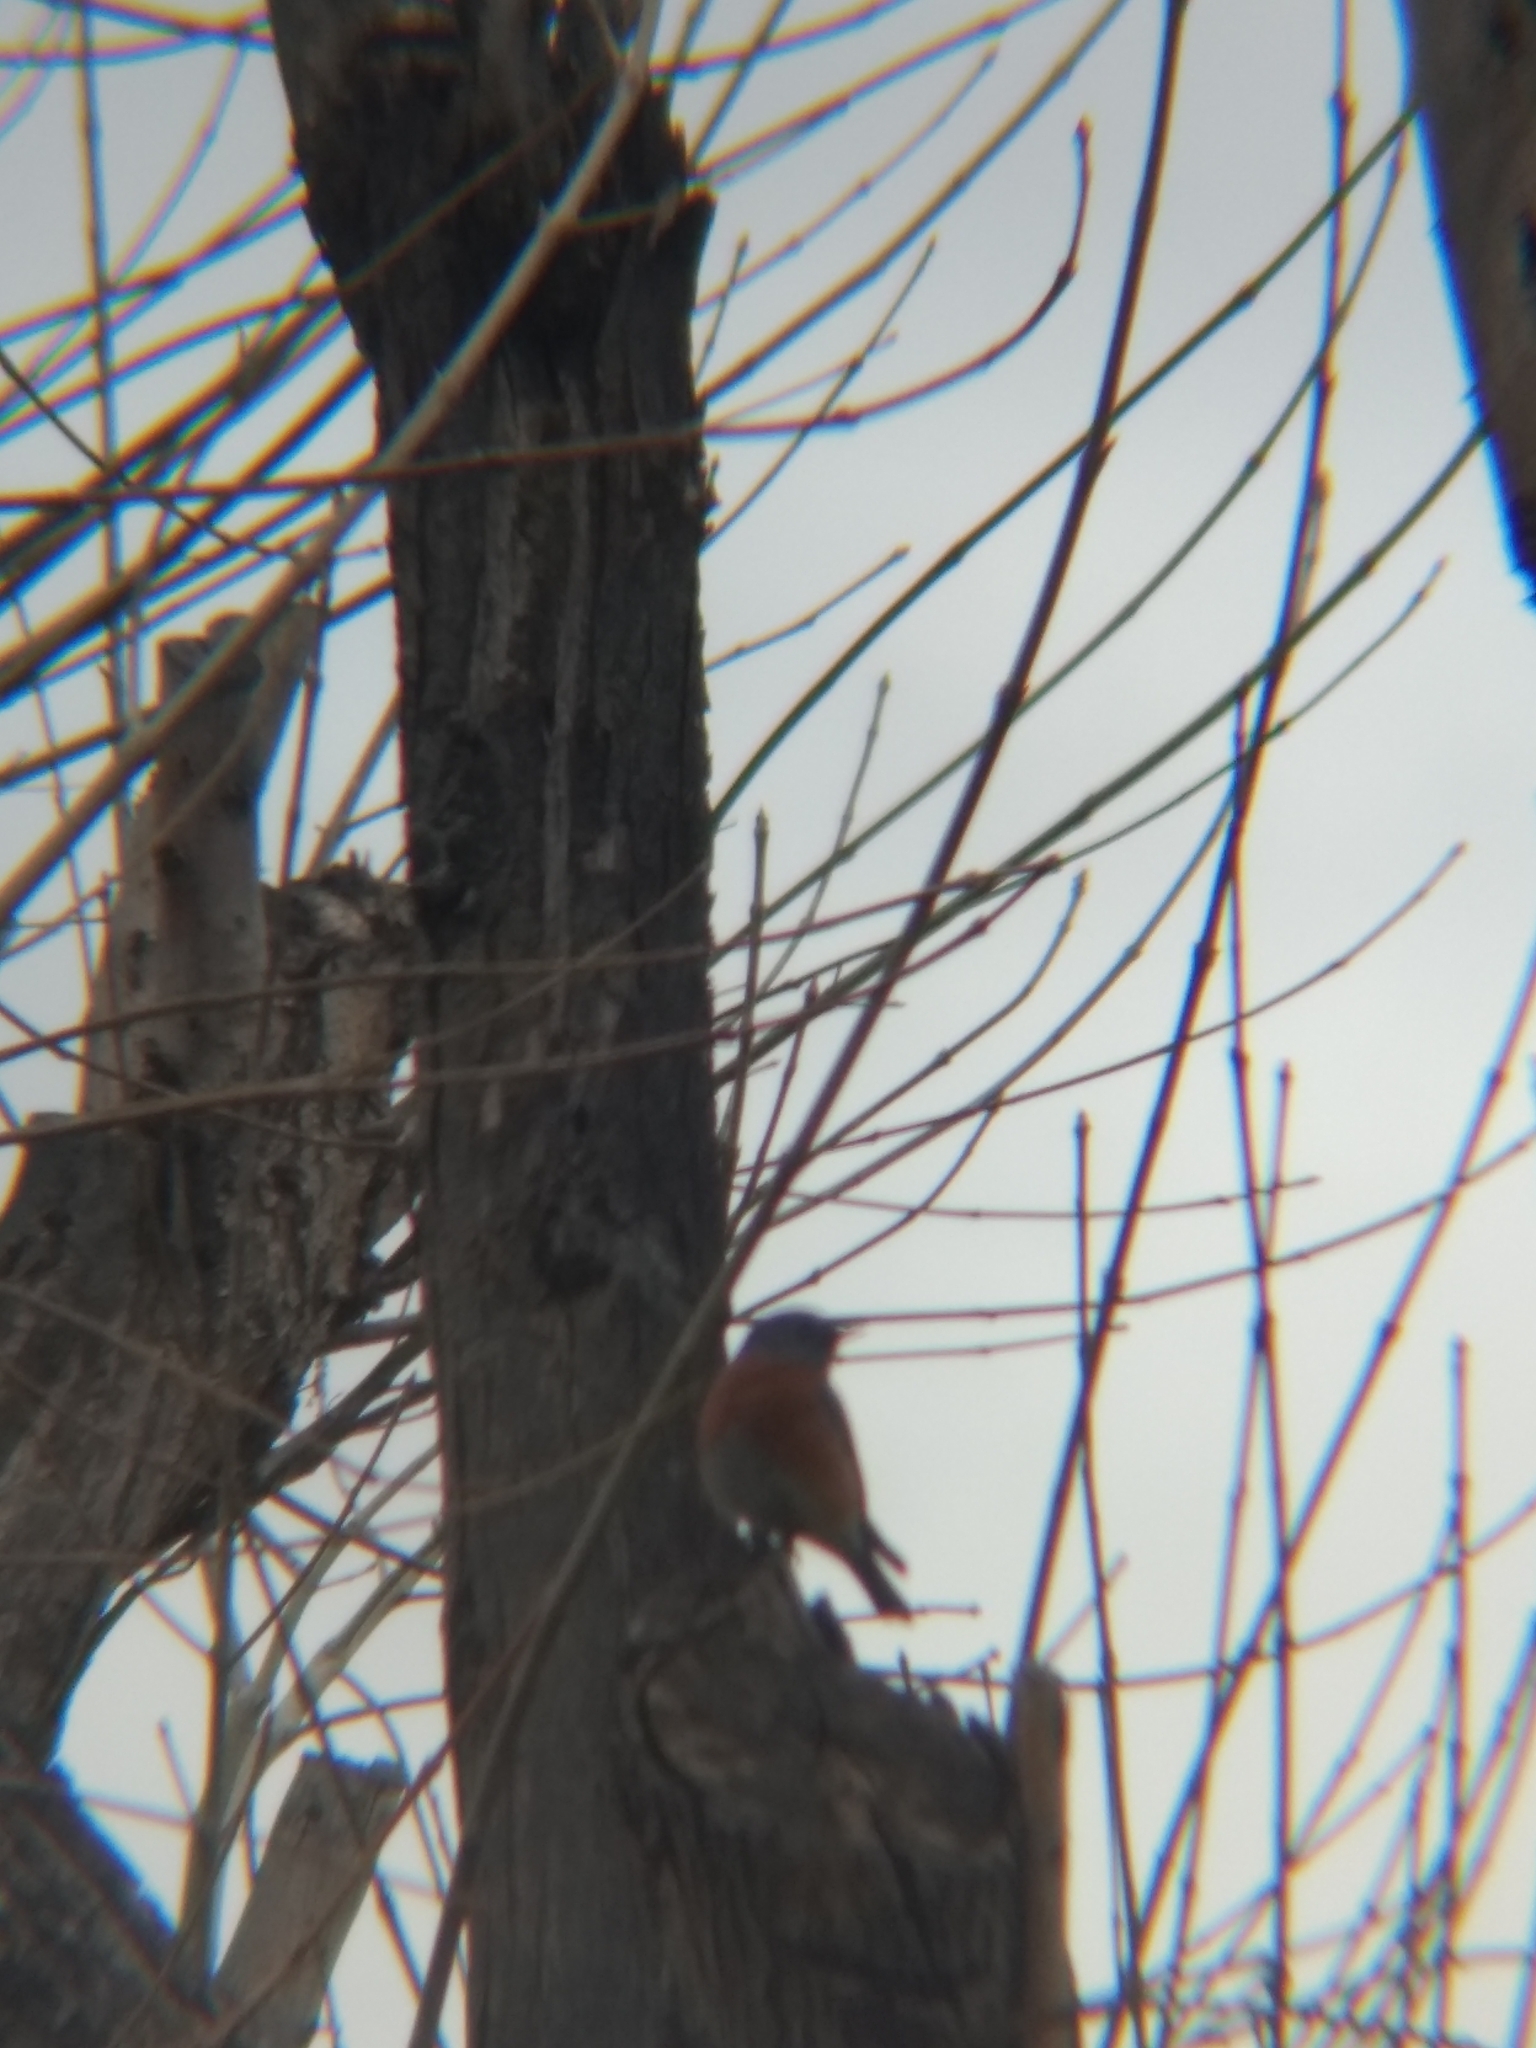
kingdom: Animalia
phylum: Chordata
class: Aves
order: Passeriformes
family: Turdidae
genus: Sialia
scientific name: Sialia mexicana
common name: Western bluebird
